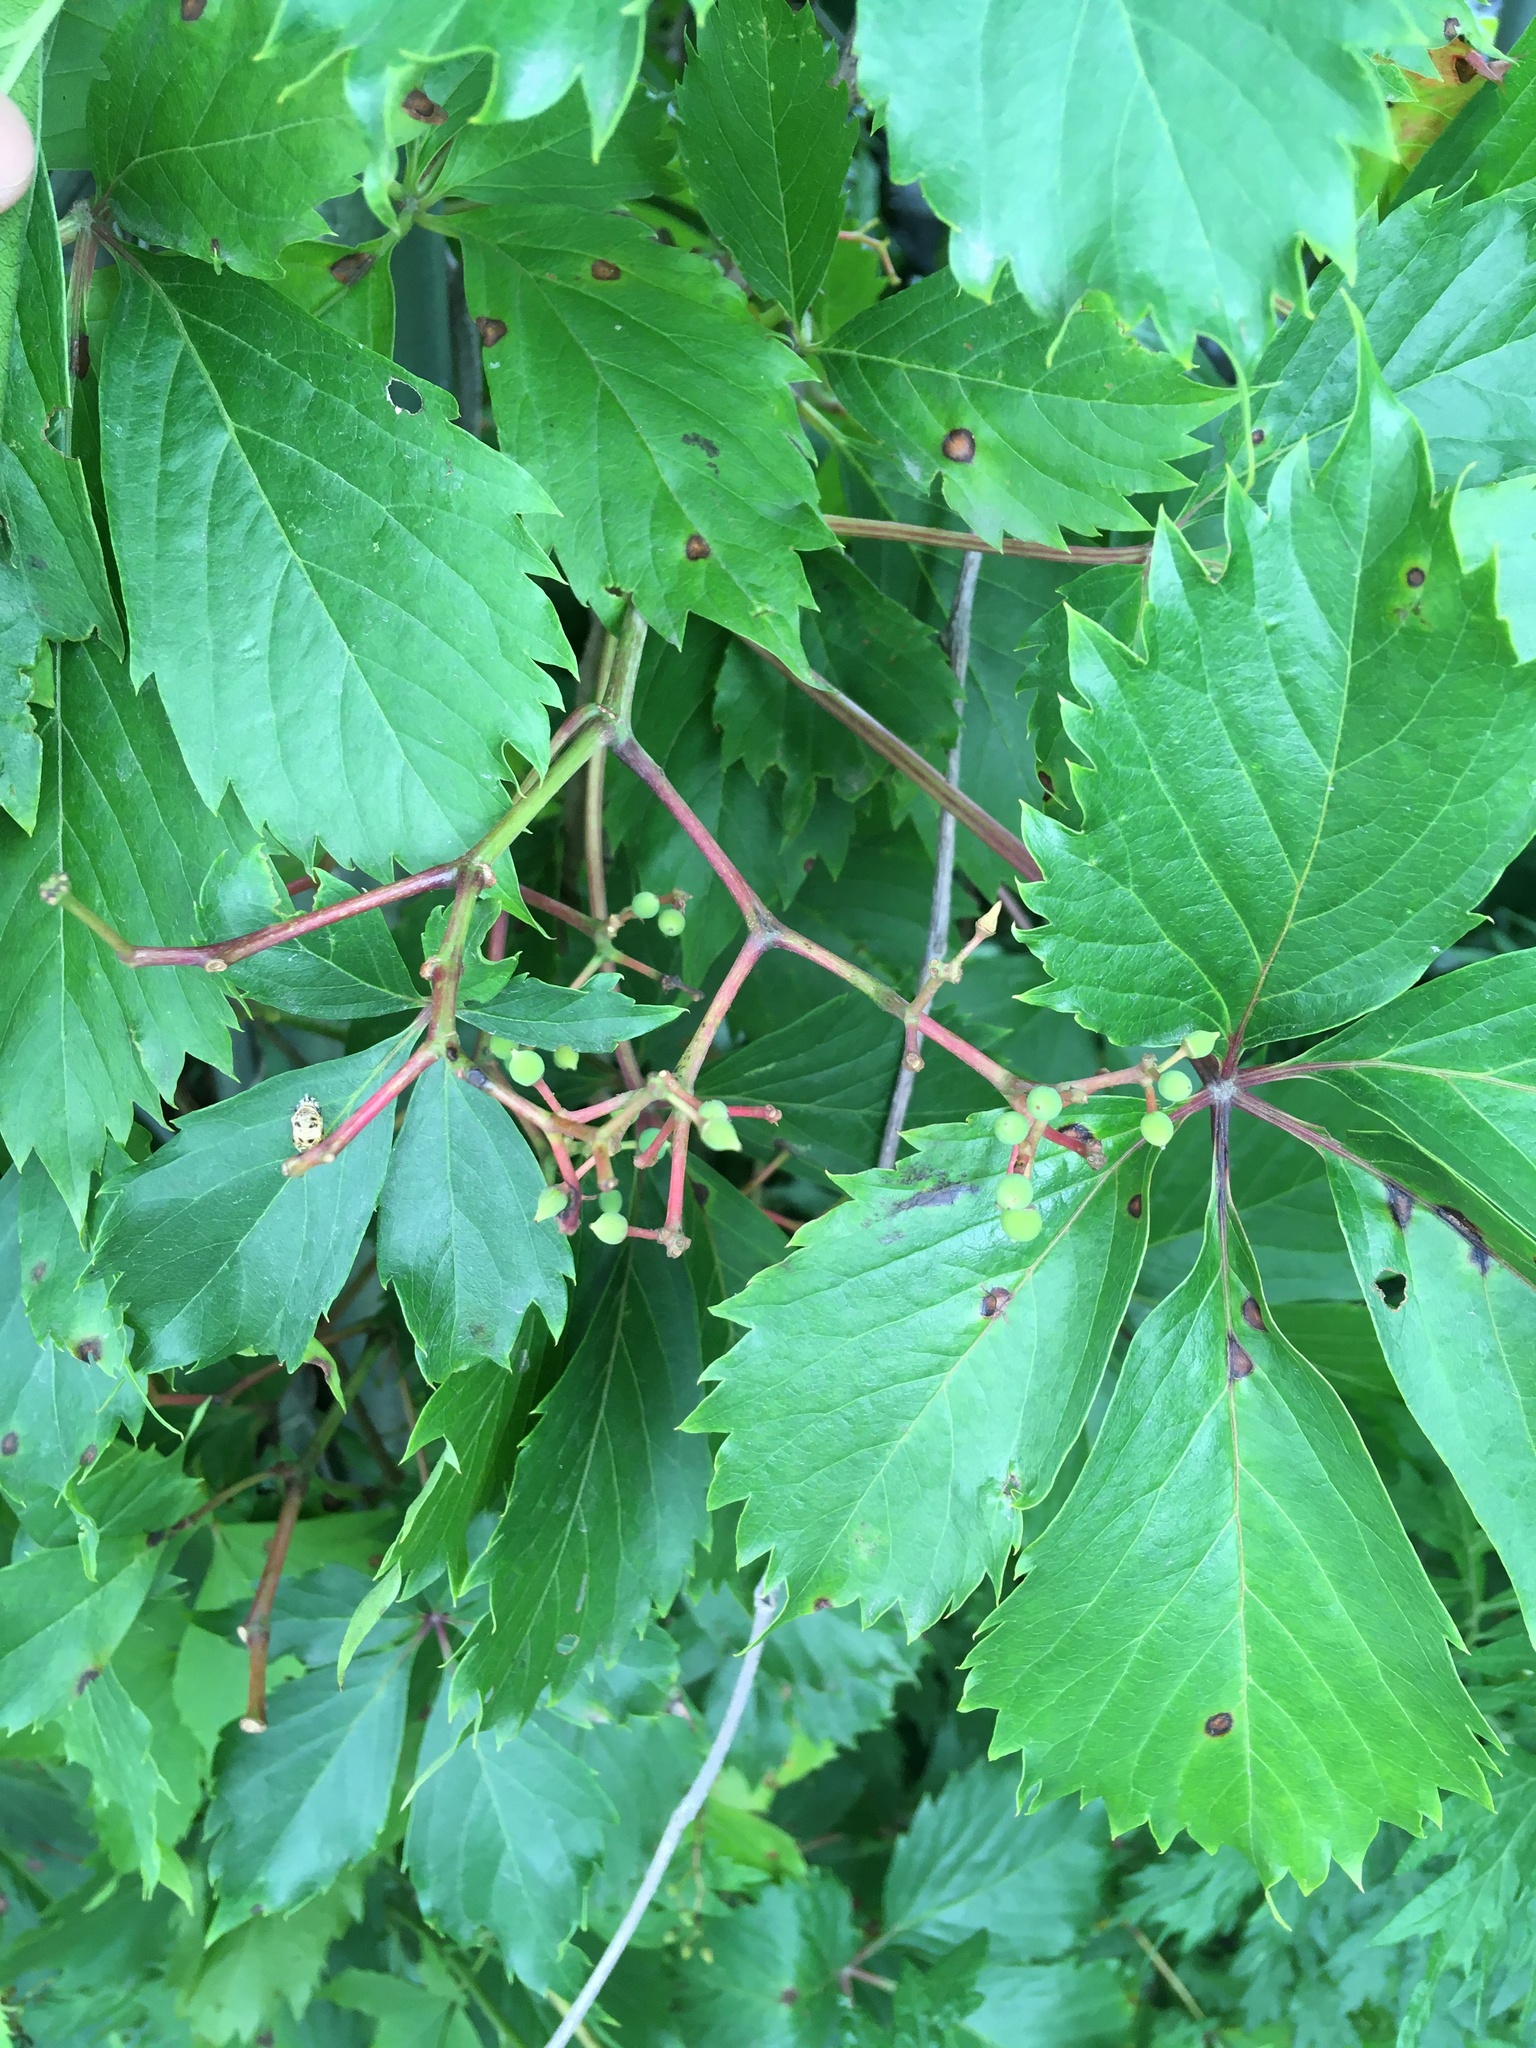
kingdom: Plantae
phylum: Tracheophyta
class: Magnoliopsida
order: Vitales
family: Vitaceae
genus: Parthenocissus
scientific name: Parthenocissus inserta
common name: False virginia-creeper
